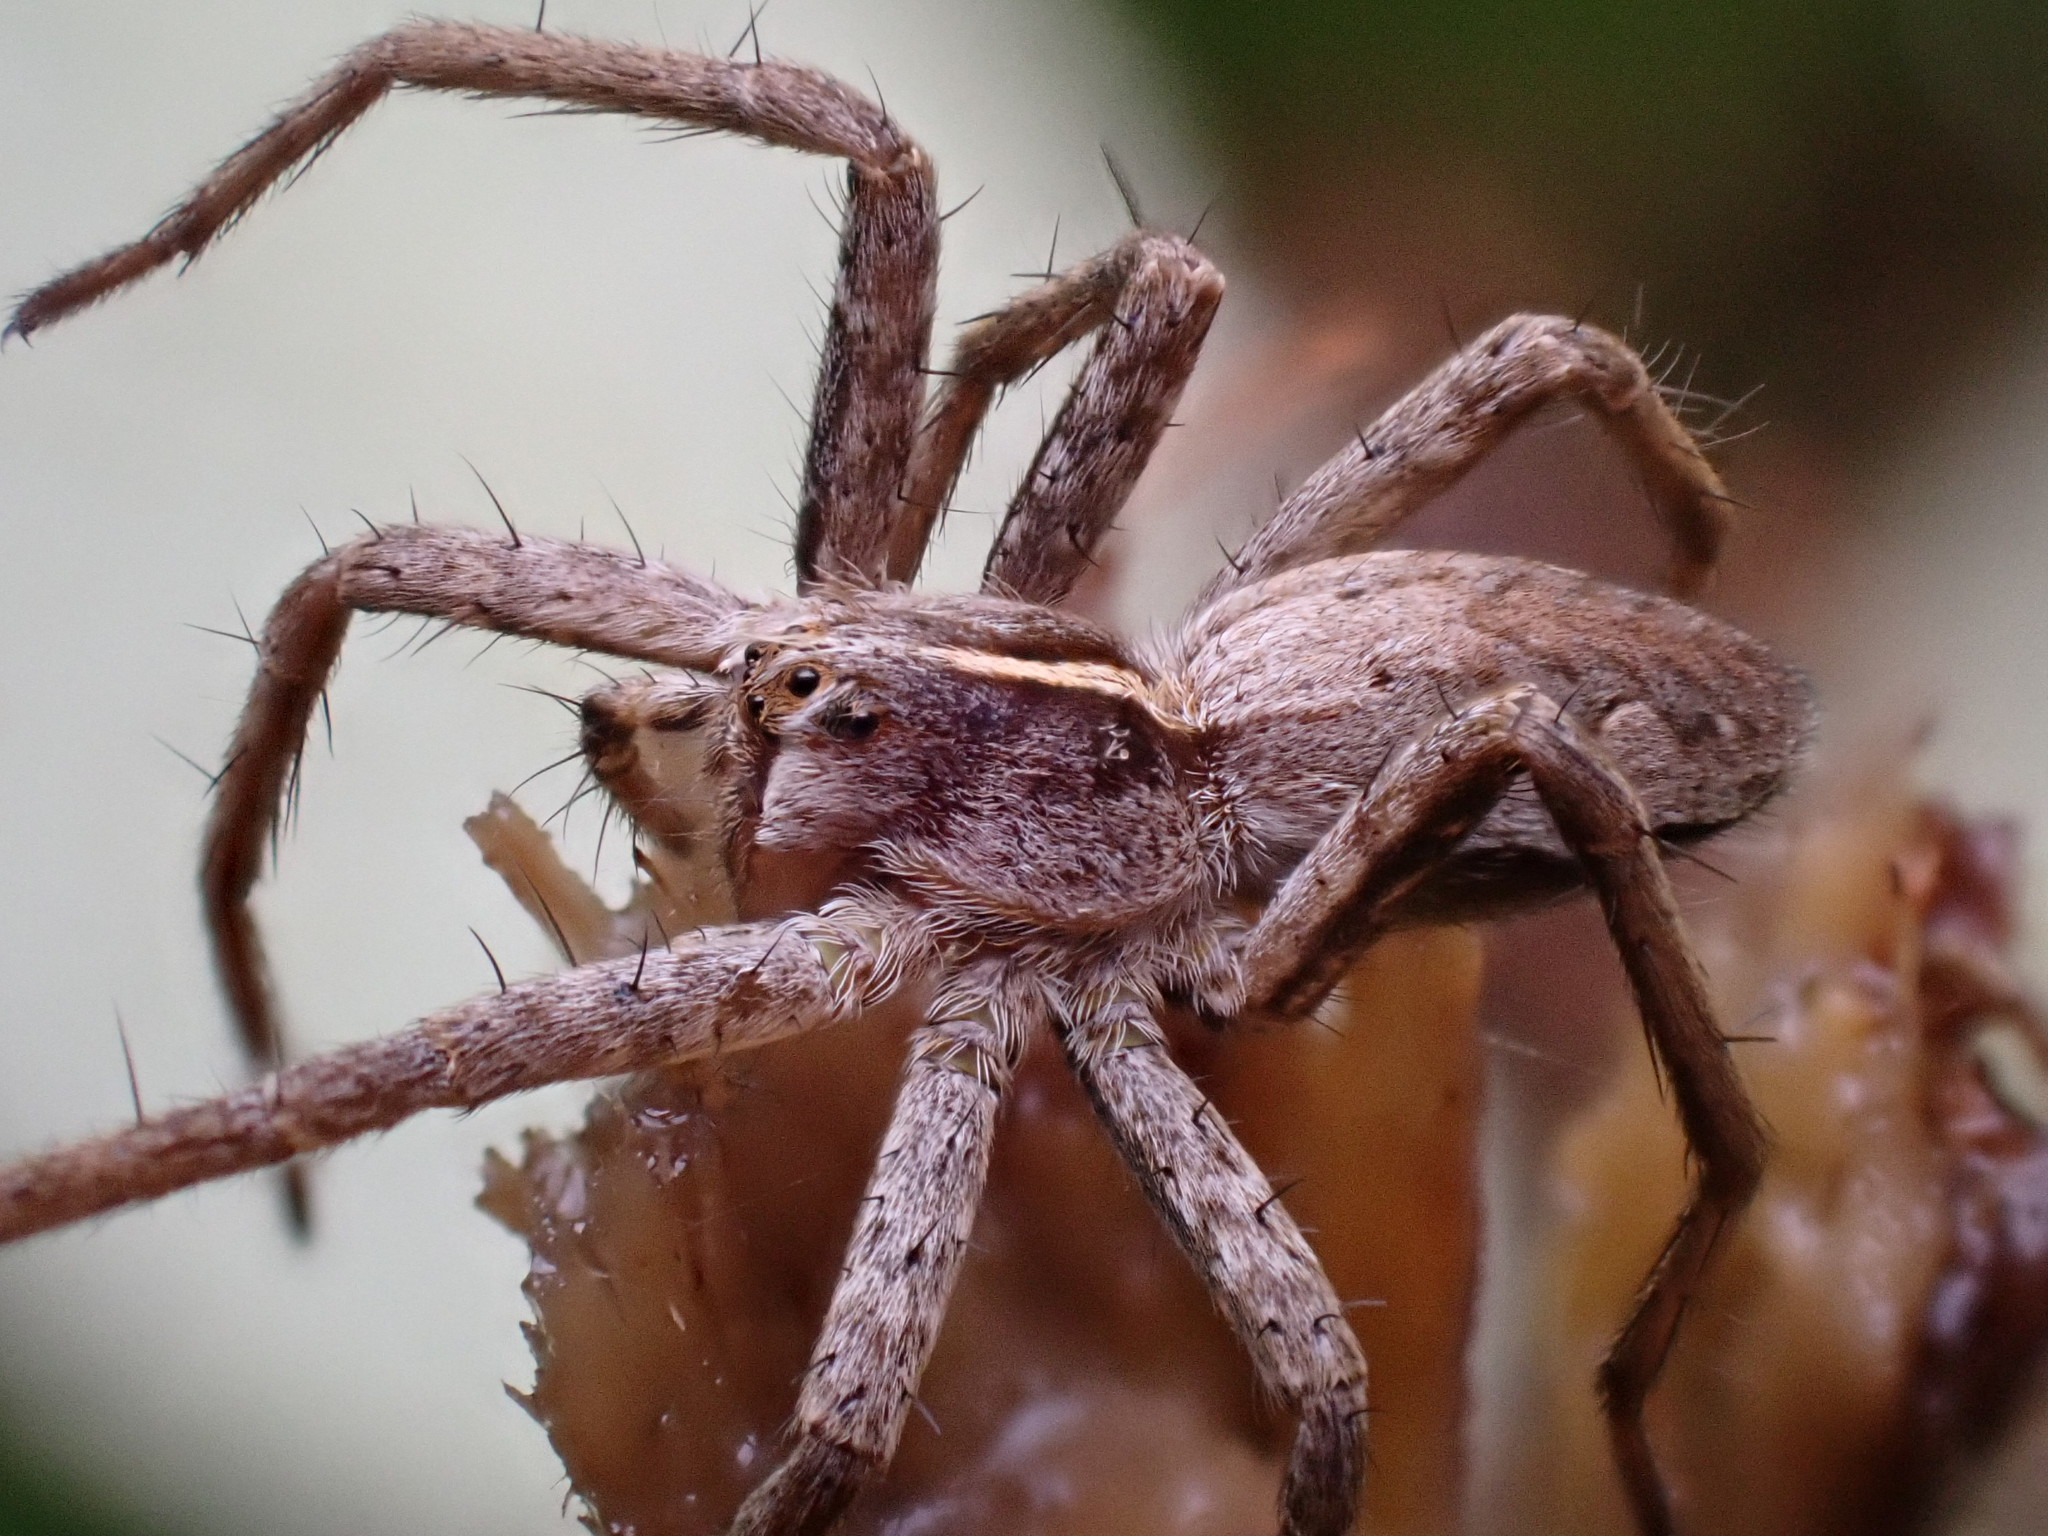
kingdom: Animalia
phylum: Arthropoda
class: Arachnida
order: Araneae
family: Pisauridae
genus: Pisaura
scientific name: Pisaura mirabilis
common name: Tent spider
